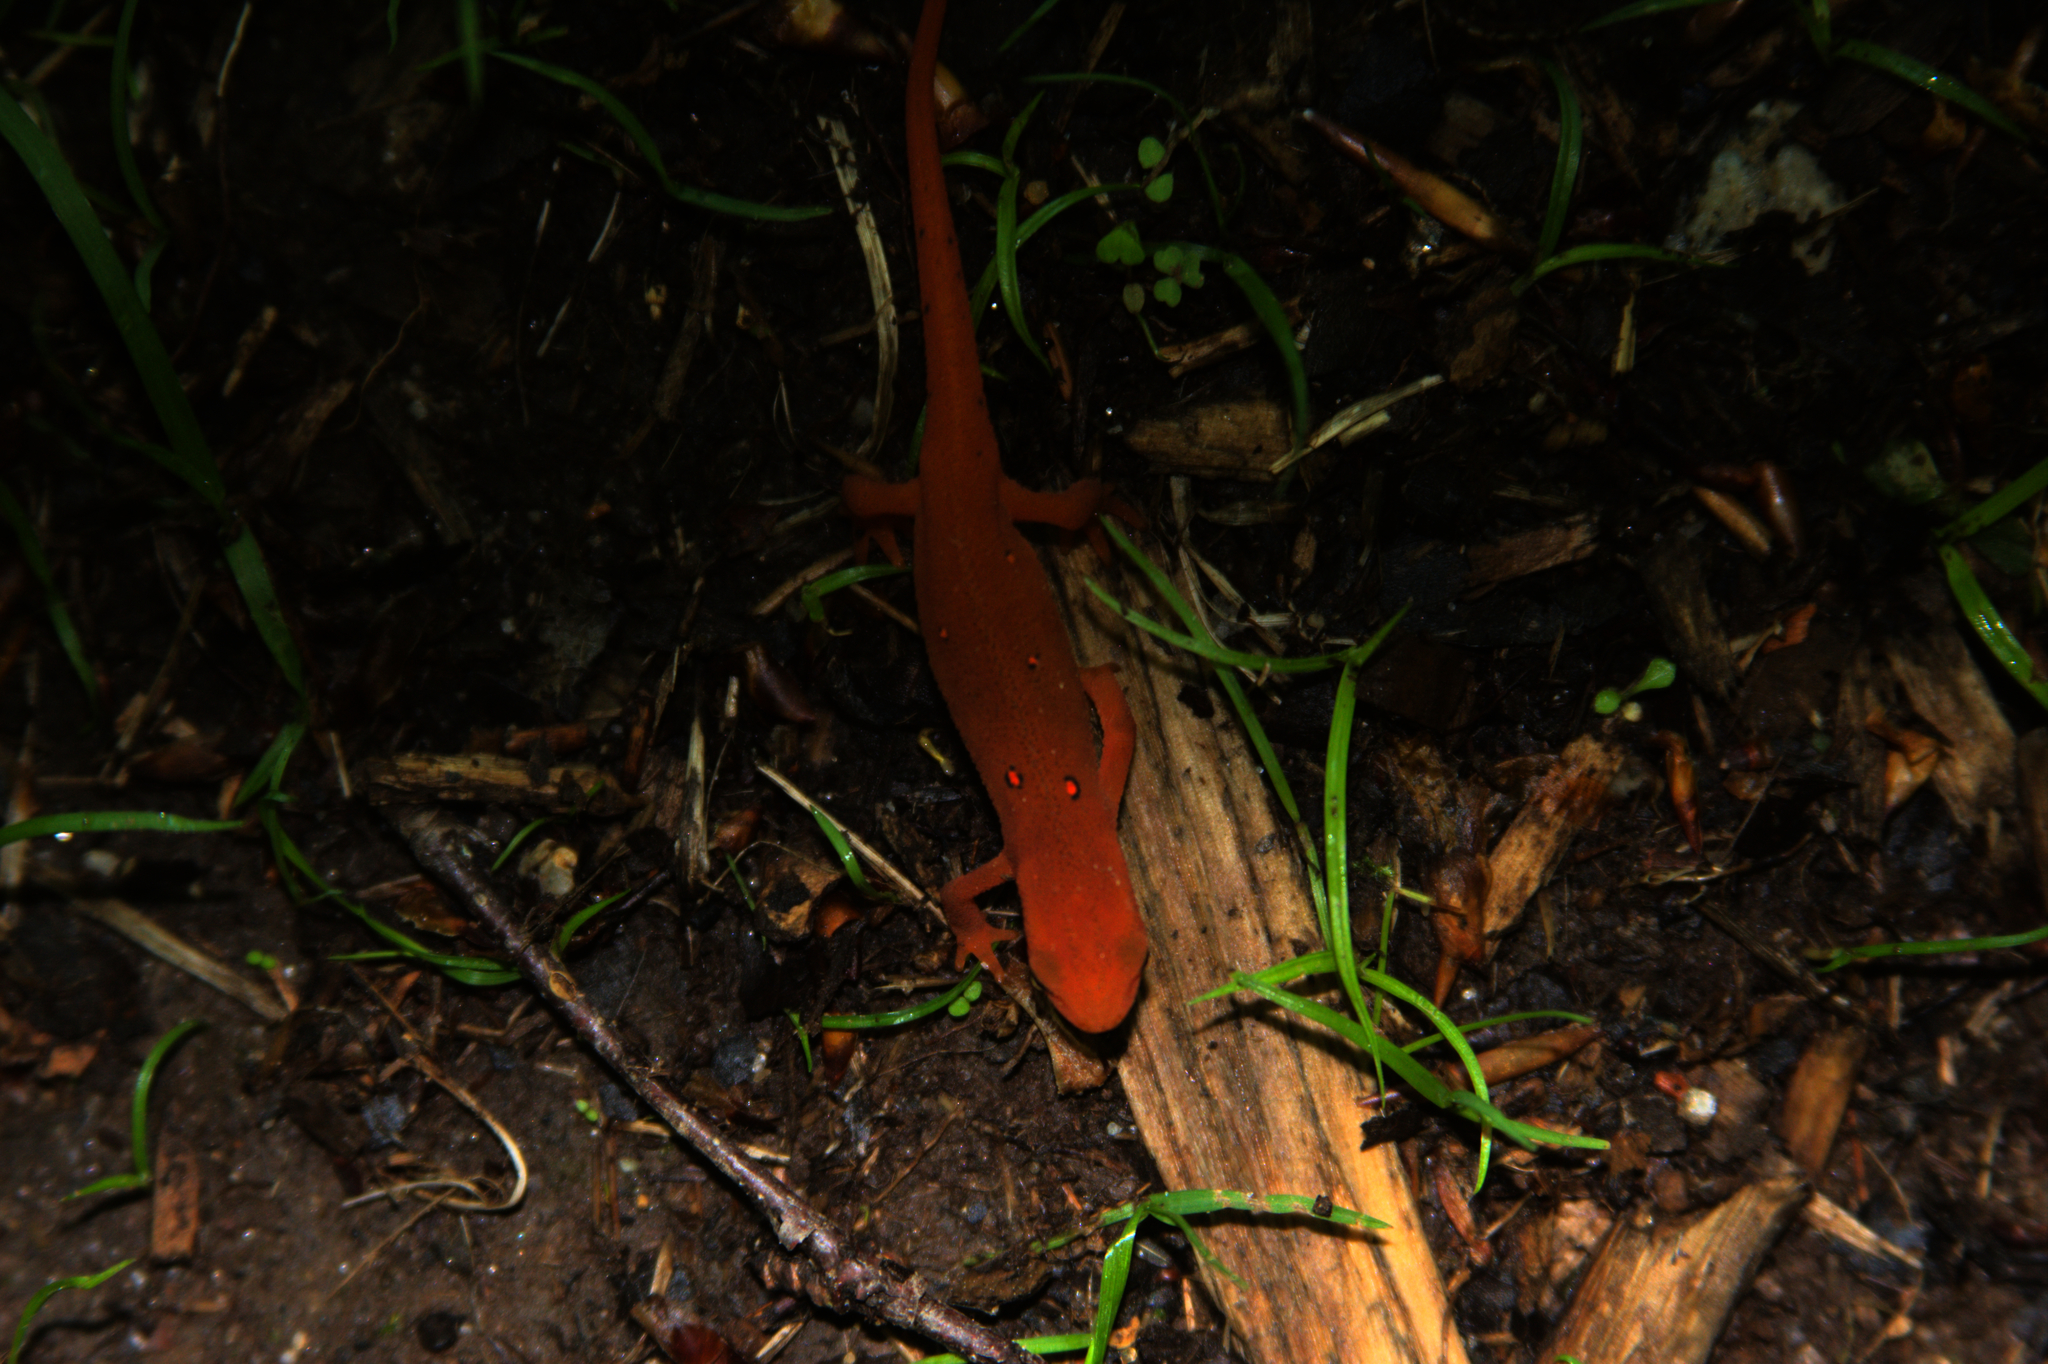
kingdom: Animalia
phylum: Chordata
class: Amphibia
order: Caudata
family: Salamandridae
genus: Notophthalmus
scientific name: Notophthalmus viridescens
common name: Eastern newt
